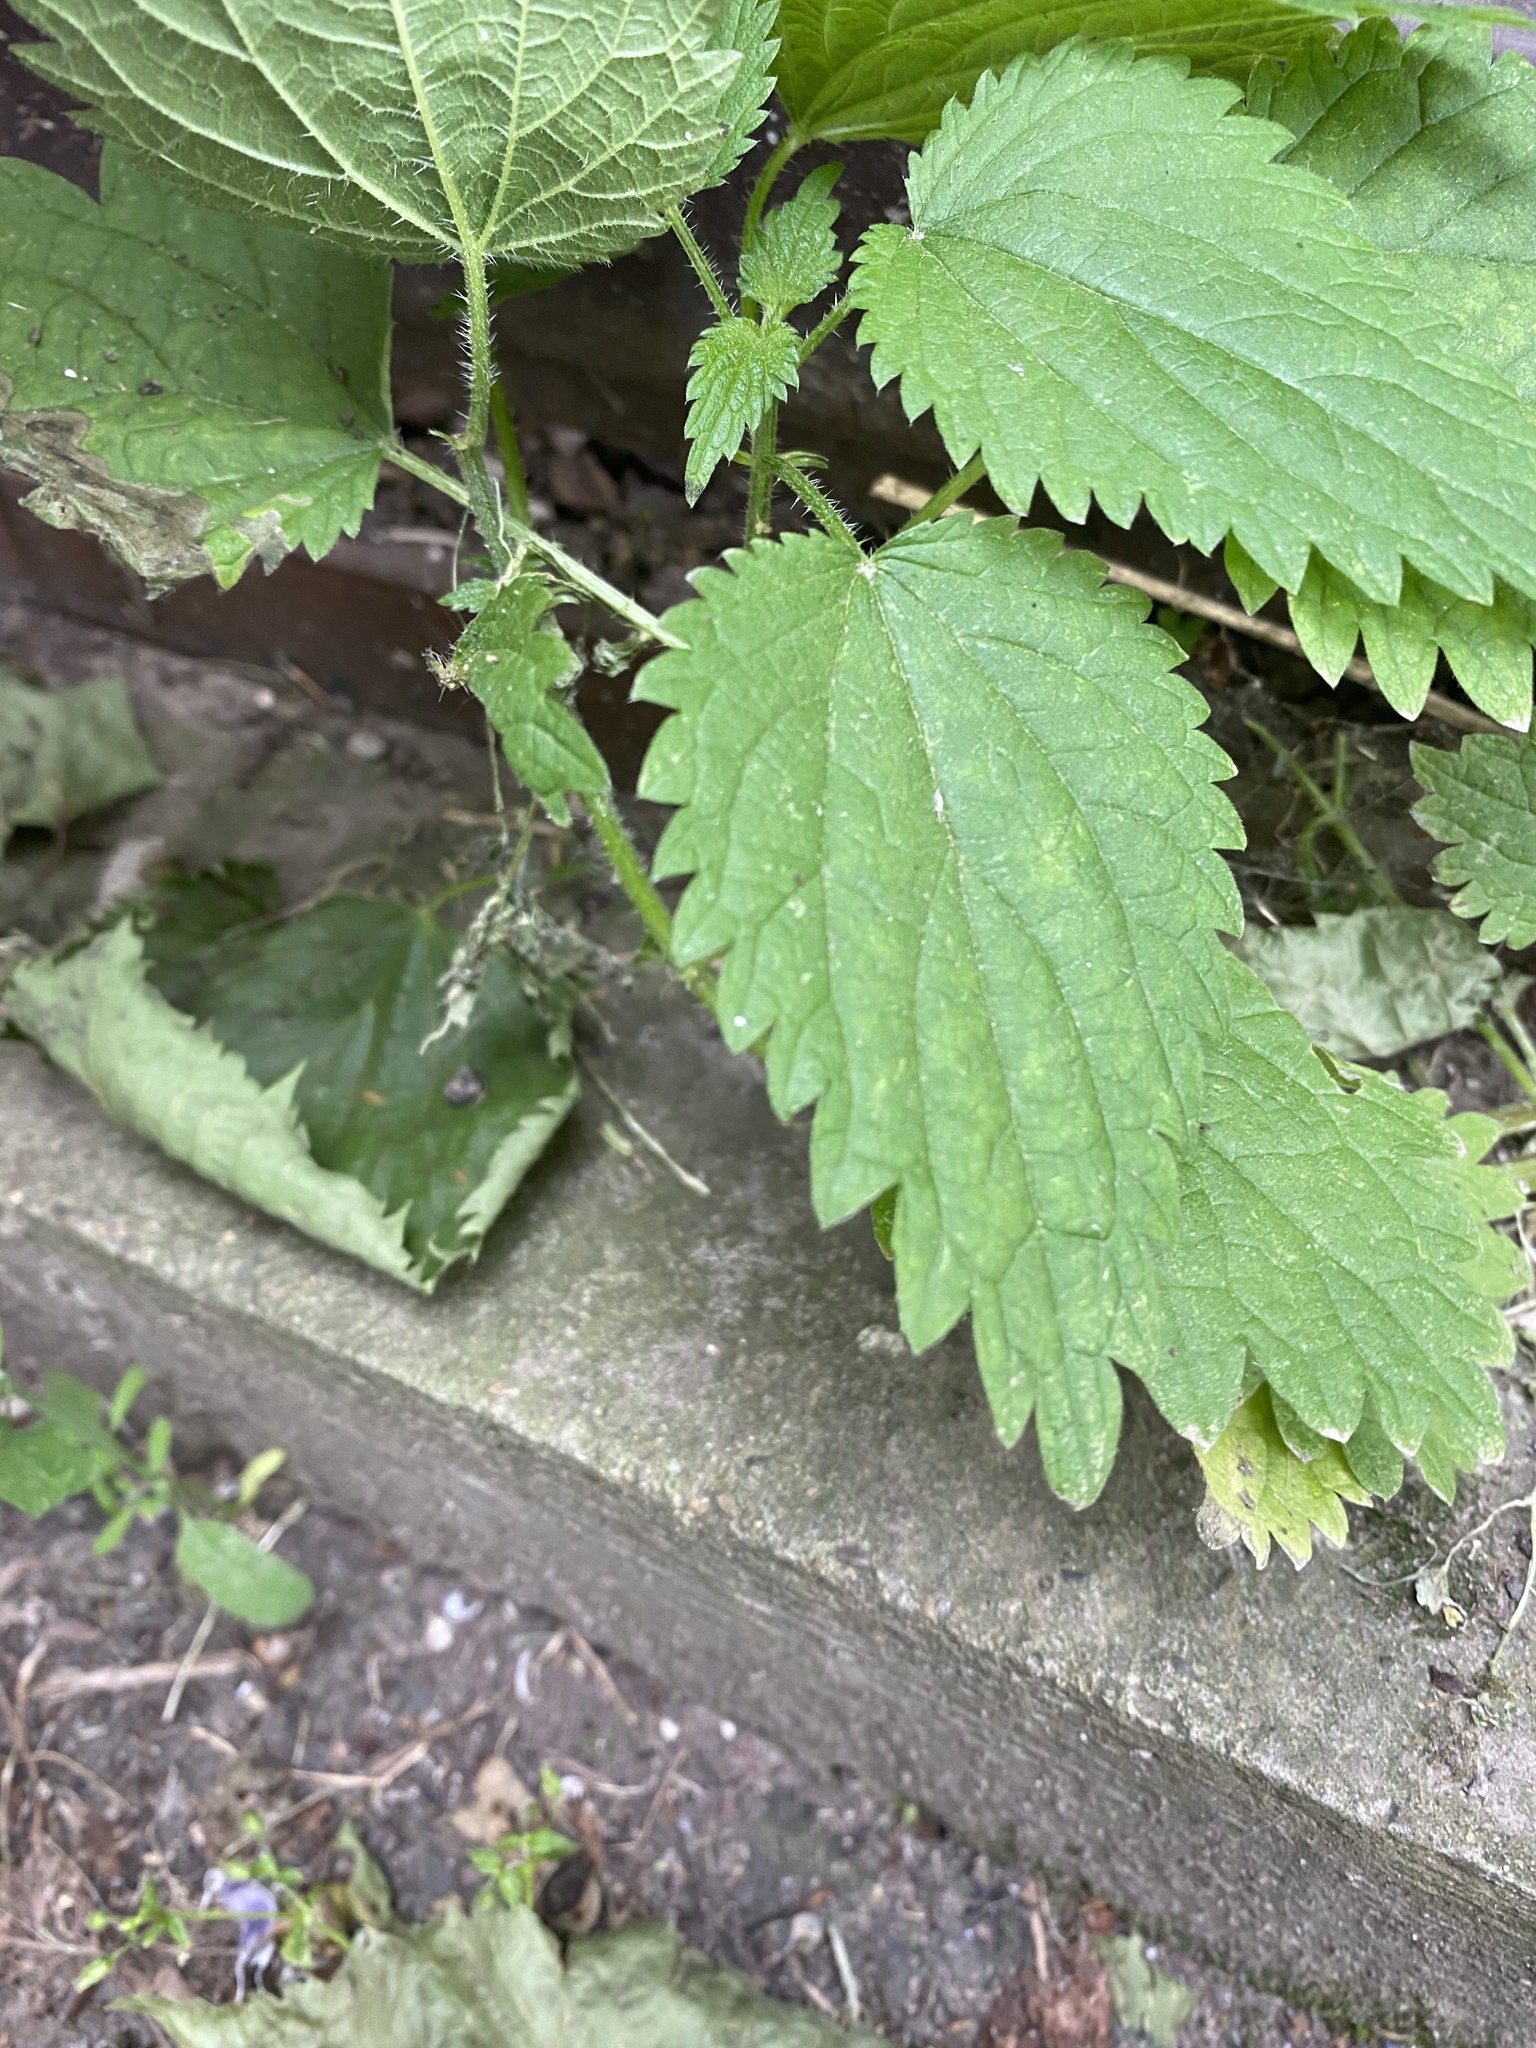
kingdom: Plantae
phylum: Tracheophyta
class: Magnoliopsida
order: Rosales
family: Urticaceae
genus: Urtica
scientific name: Urtica dioica
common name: Common nettle
